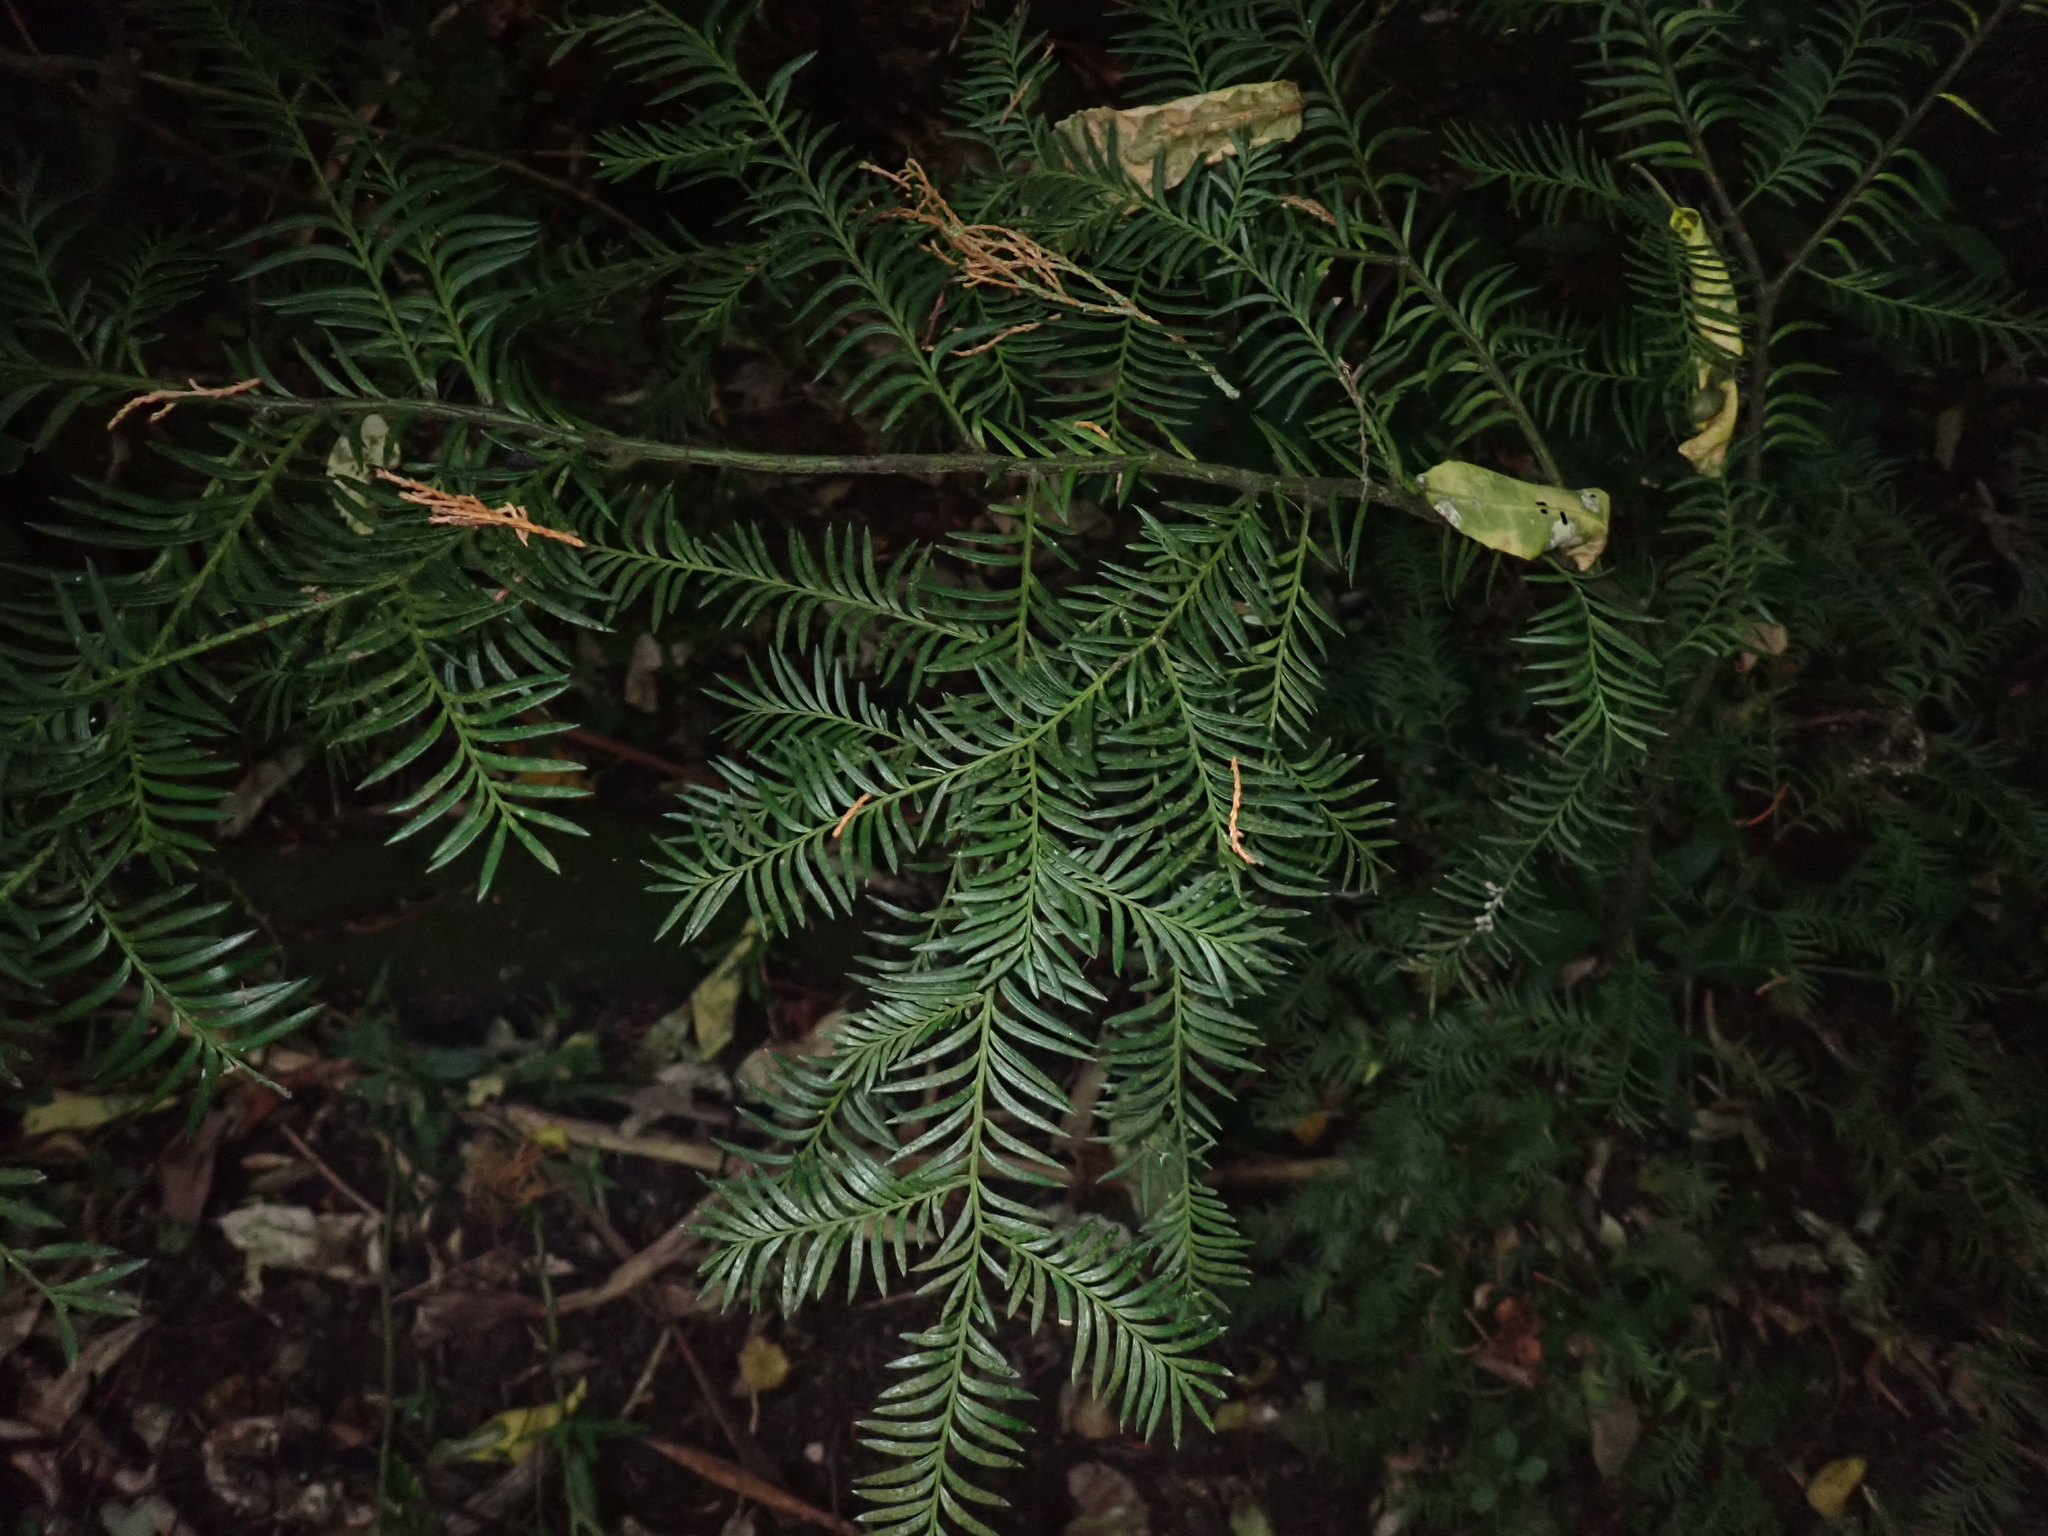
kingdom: Plantae
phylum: Tracheophyta
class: Pinopsida
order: Pinales
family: Podocarpaceae
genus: Prumnopitys
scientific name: Prumnopitys ferruginea
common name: Brown pine
